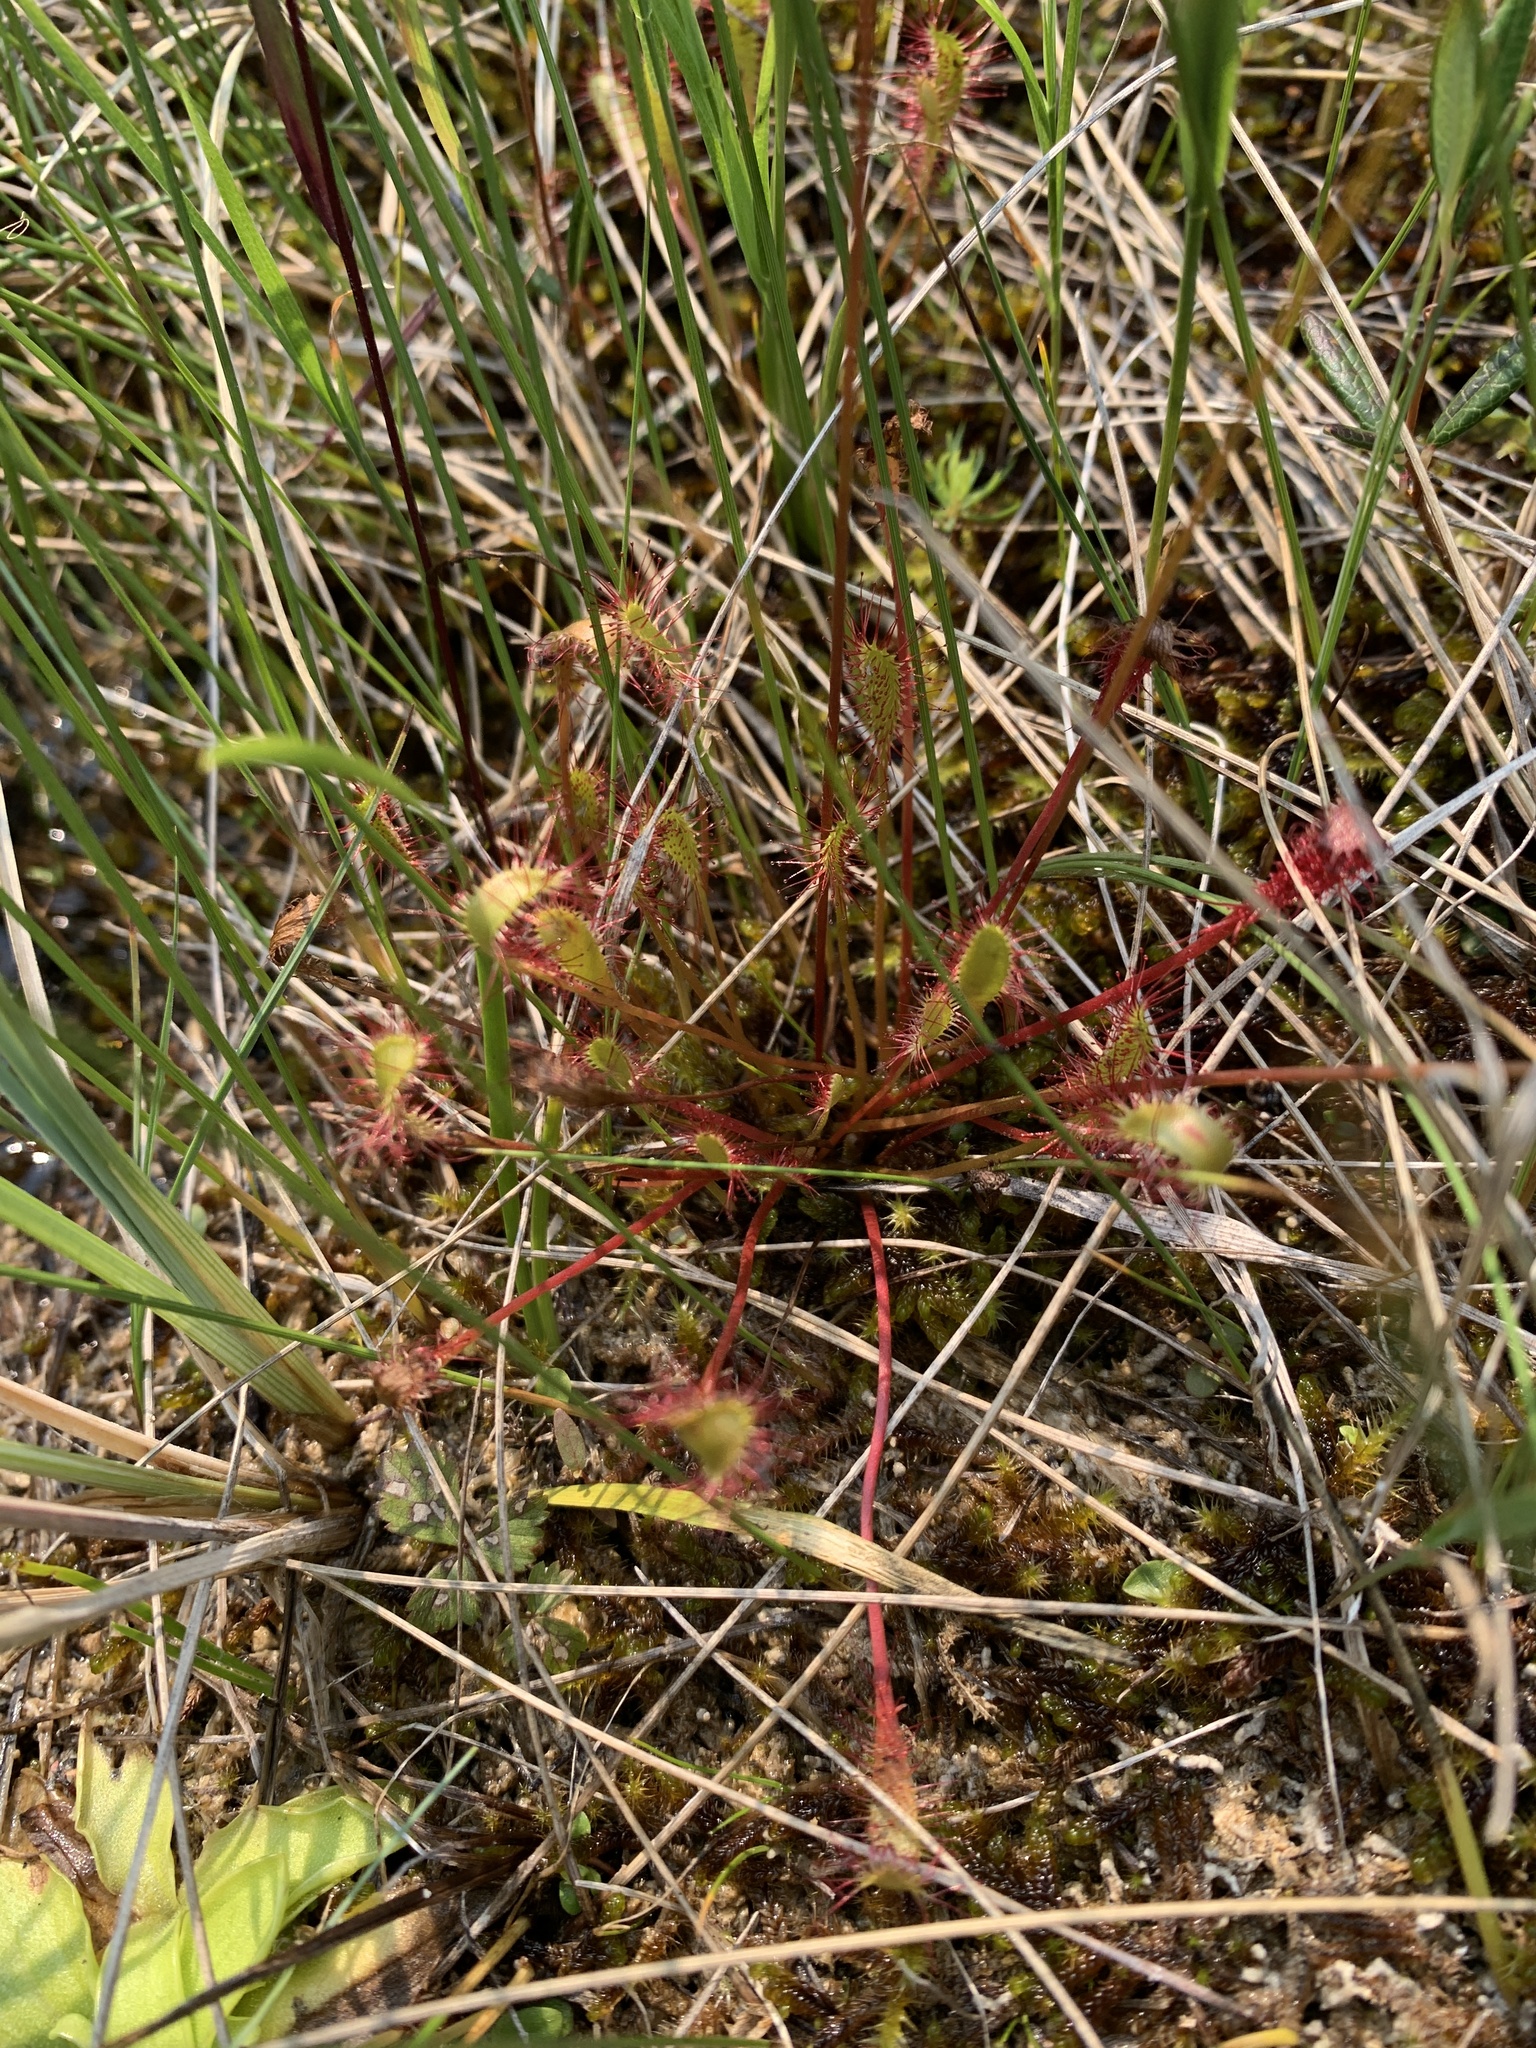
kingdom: Plantae
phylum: Tracheophyta
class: Magnoliopsida
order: Caryophyllales
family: Droseraceae
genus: Drosera
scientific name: Drosera anglica
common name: Great sundew
